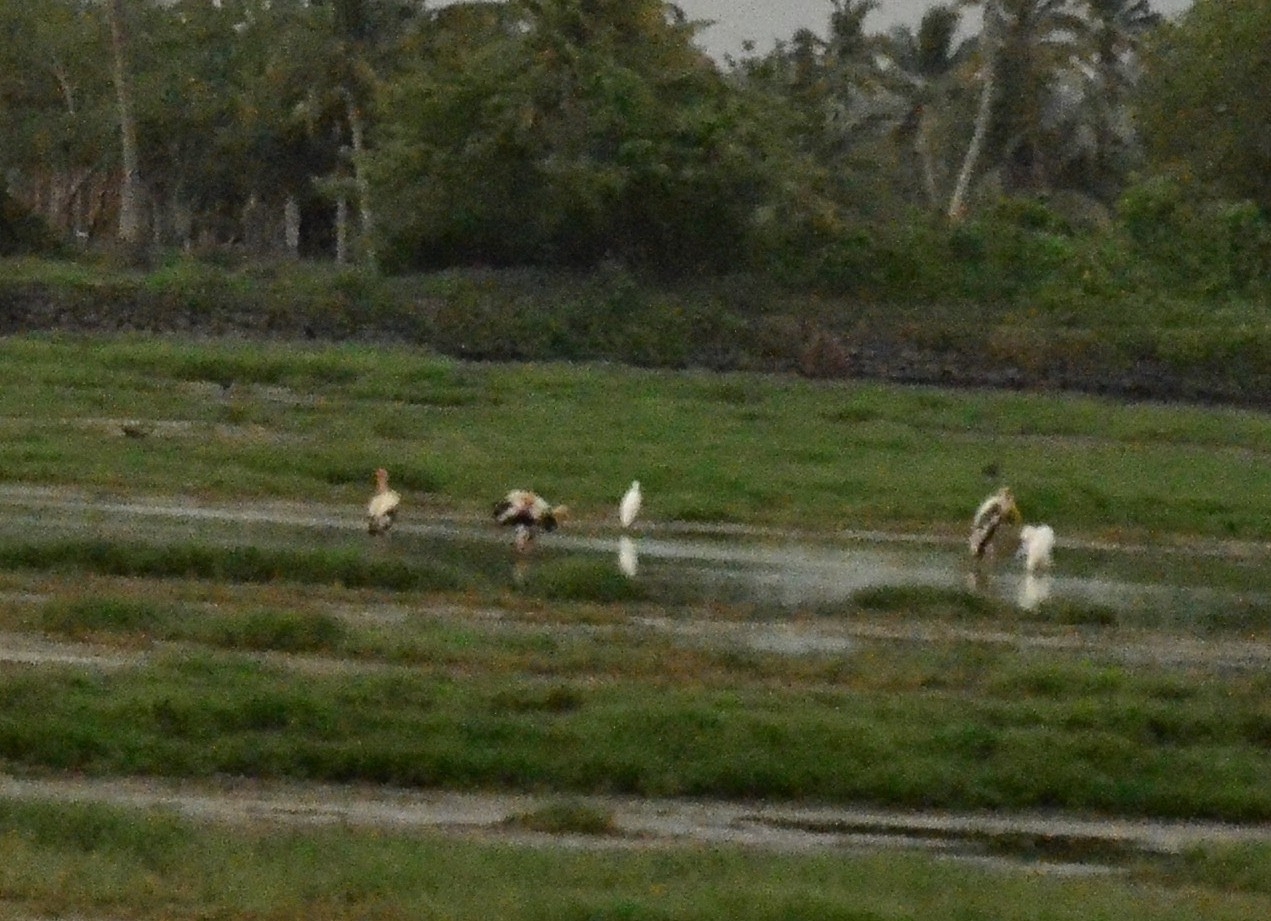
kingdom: Animalia
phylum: Chordata
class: Aves
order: Ciconiiformes
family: Ciconiidae
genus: Mycteria
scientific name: Mycteria leucocephala
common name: Painted stork
